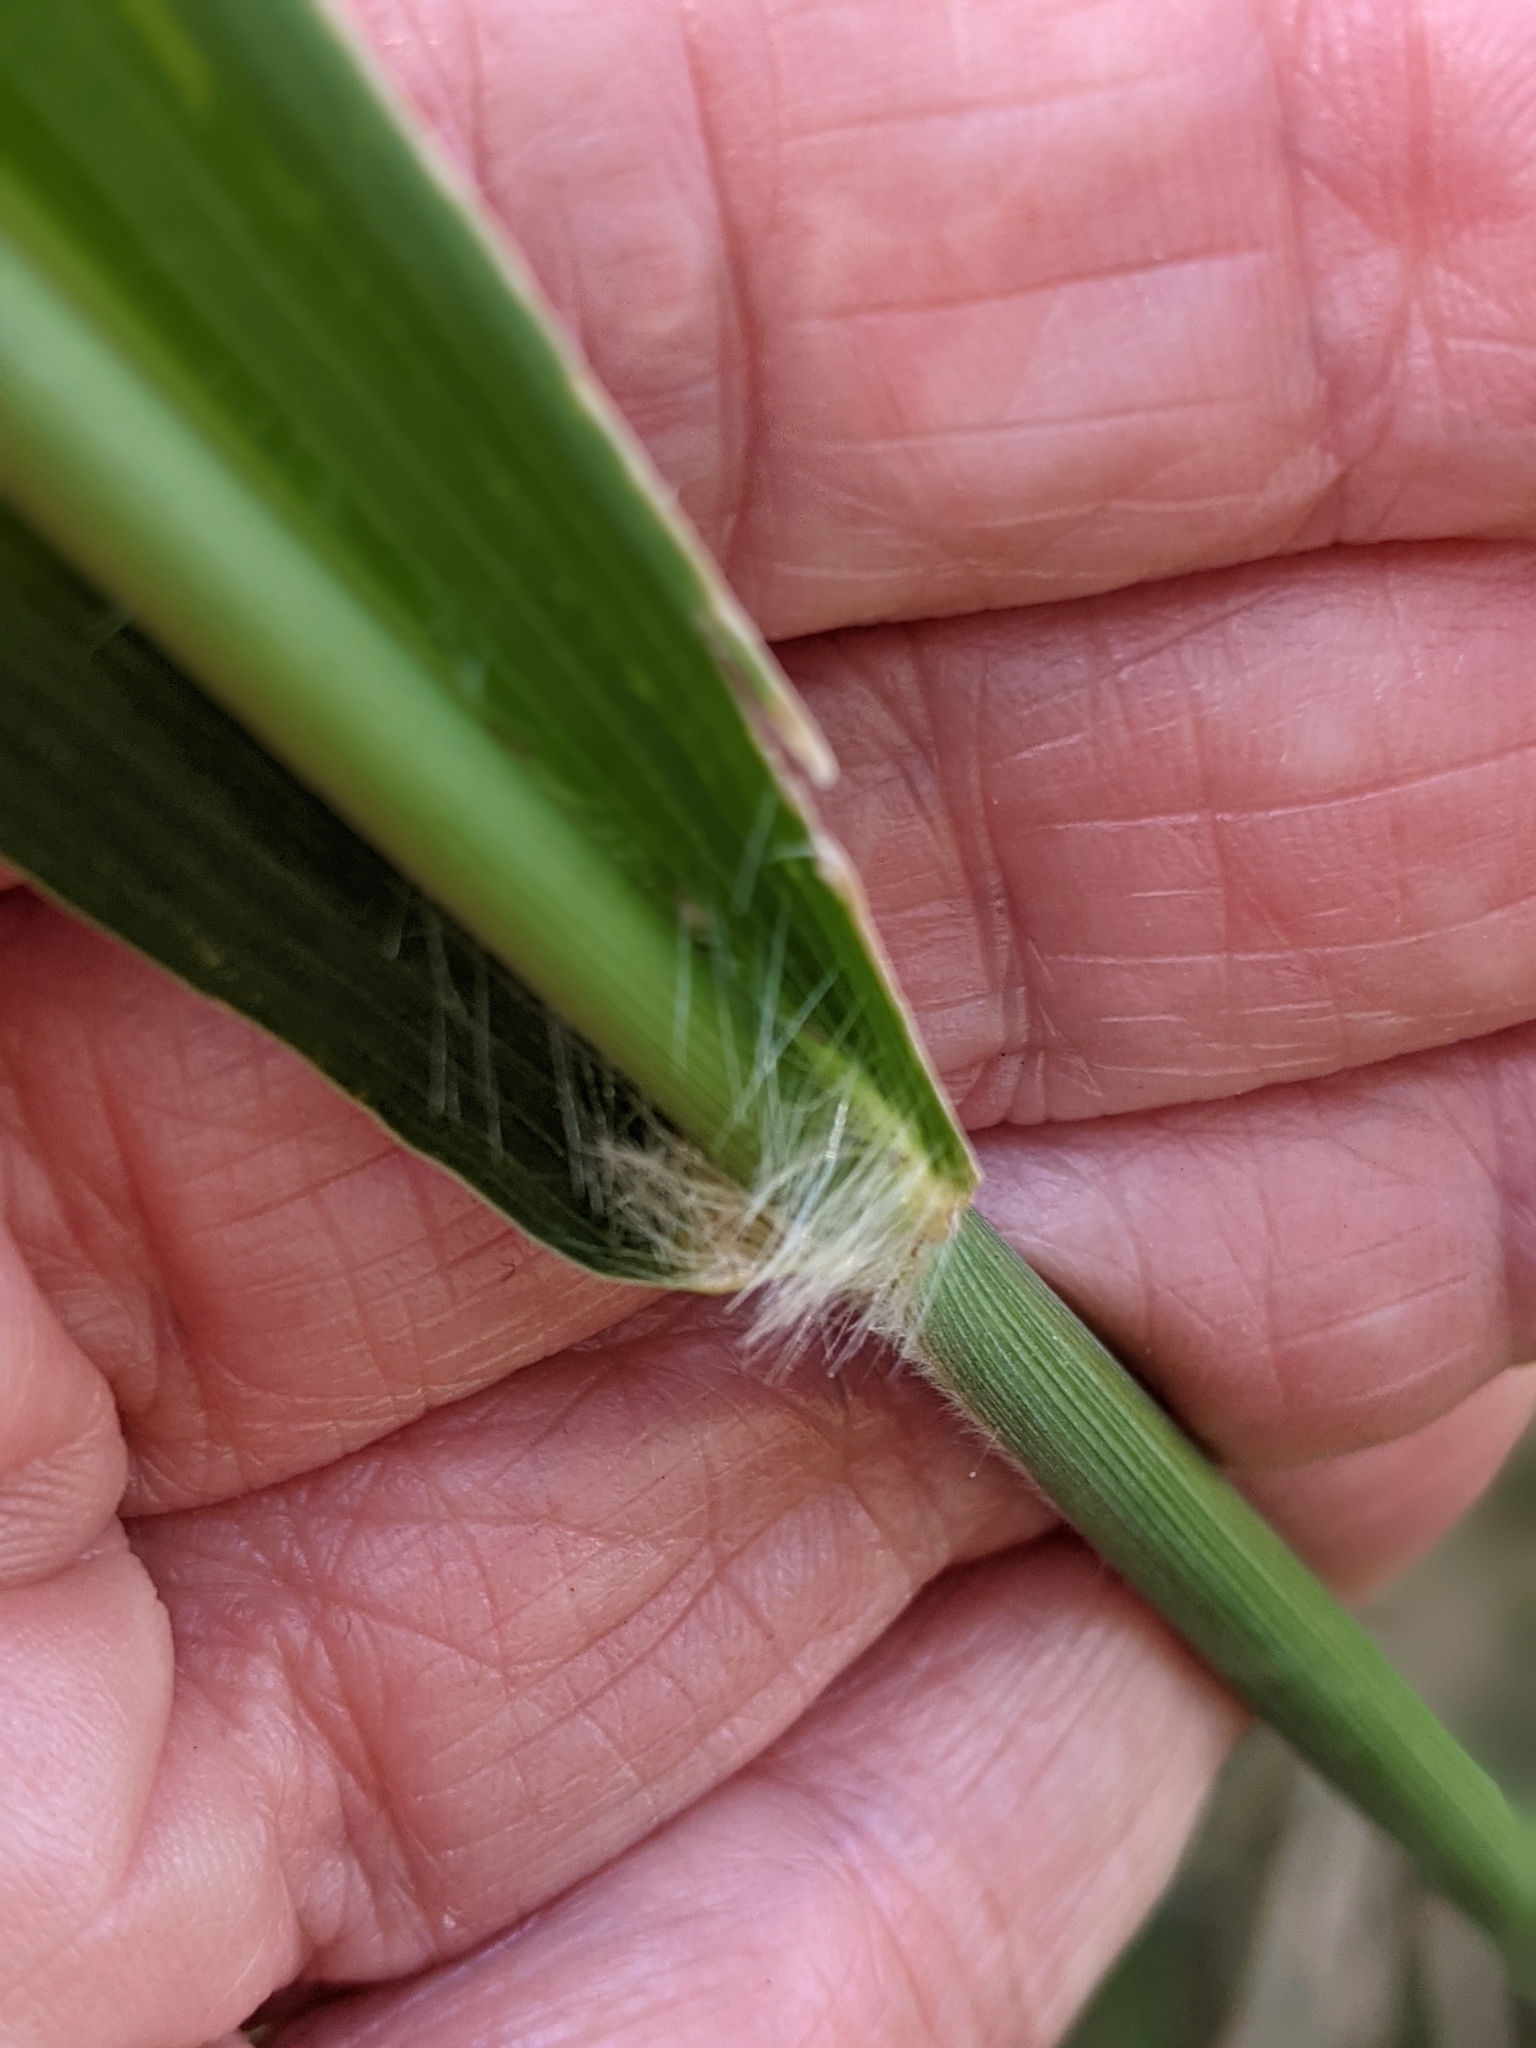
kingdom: Plantae
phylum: Tracheophyta
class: Liliopsida
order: Poales
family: Poaceae
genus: Megathyrsus
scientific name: Megathyrsus maximus
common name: Guineagrass
